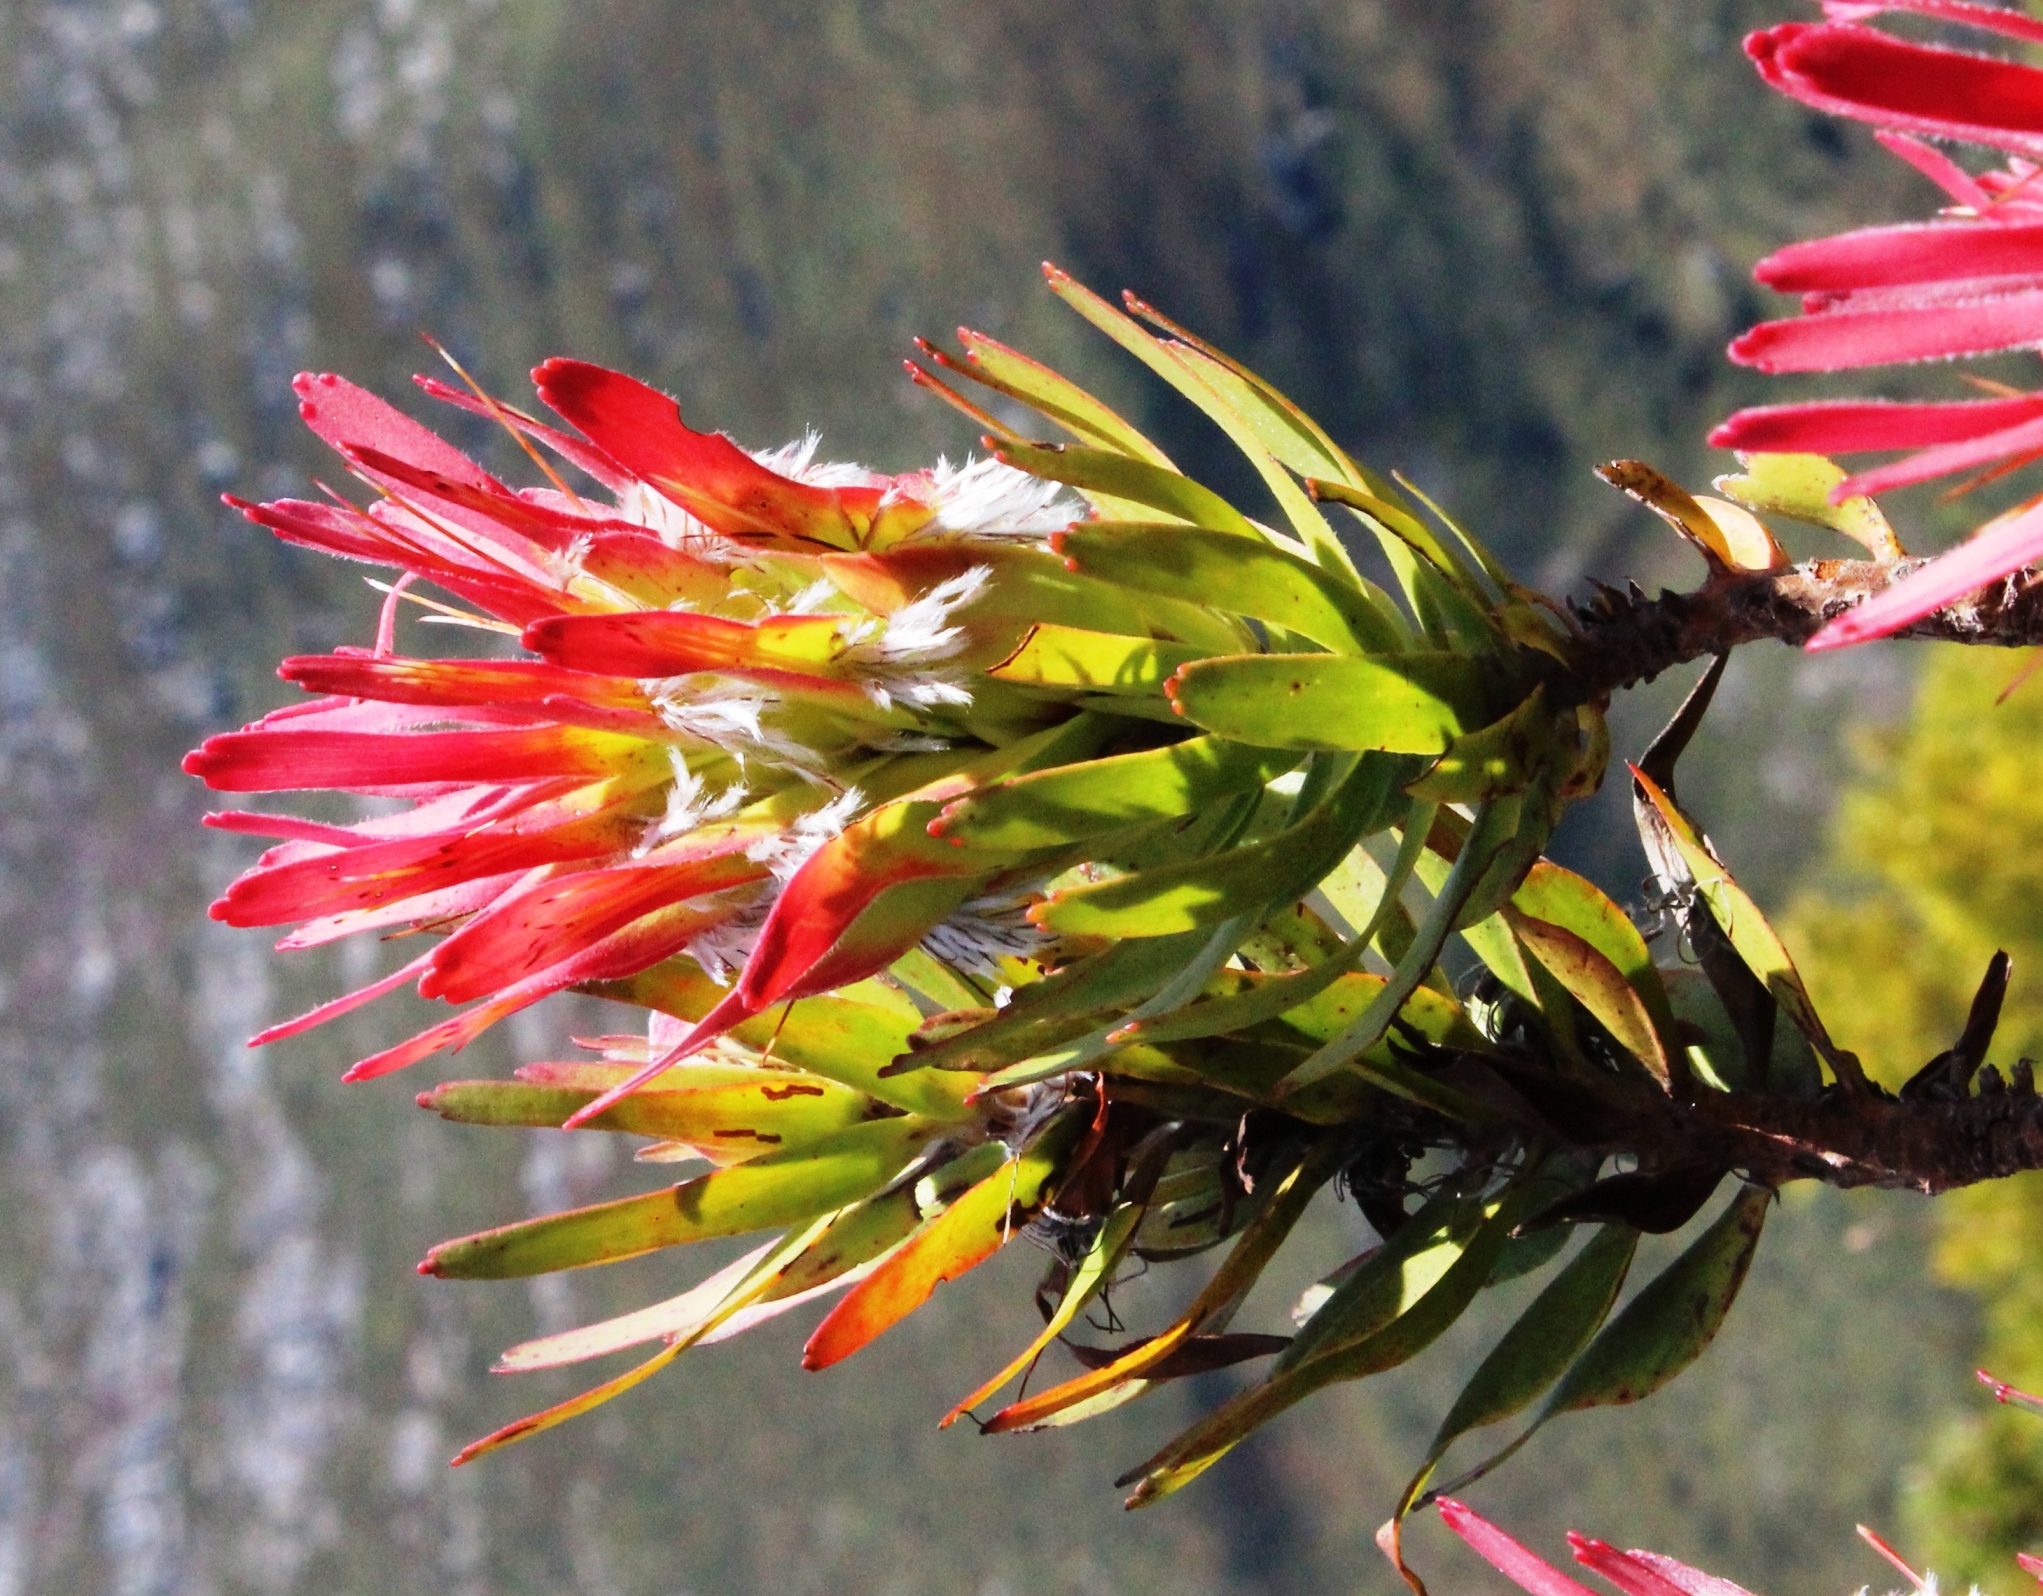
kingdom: Plantae
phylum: Tracheophyta
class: Magnoliopsida
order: Proteales
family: Proteaceae
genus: Mimetes
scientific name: Mimetes cucullatus
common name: Common pagoda
